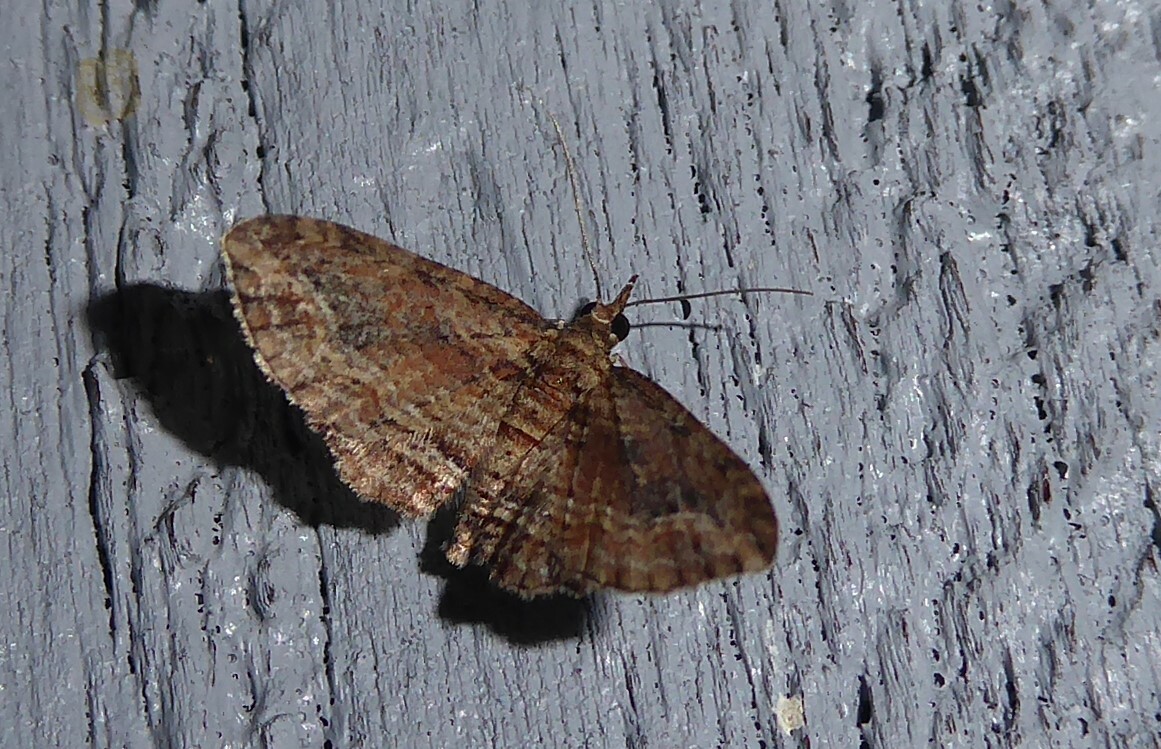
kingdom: Animalia
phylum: Arthropoda
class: Insecta
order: Lepidoptera
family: Geometridae
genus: Chloroclystis
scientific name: Chloroclystis filata
